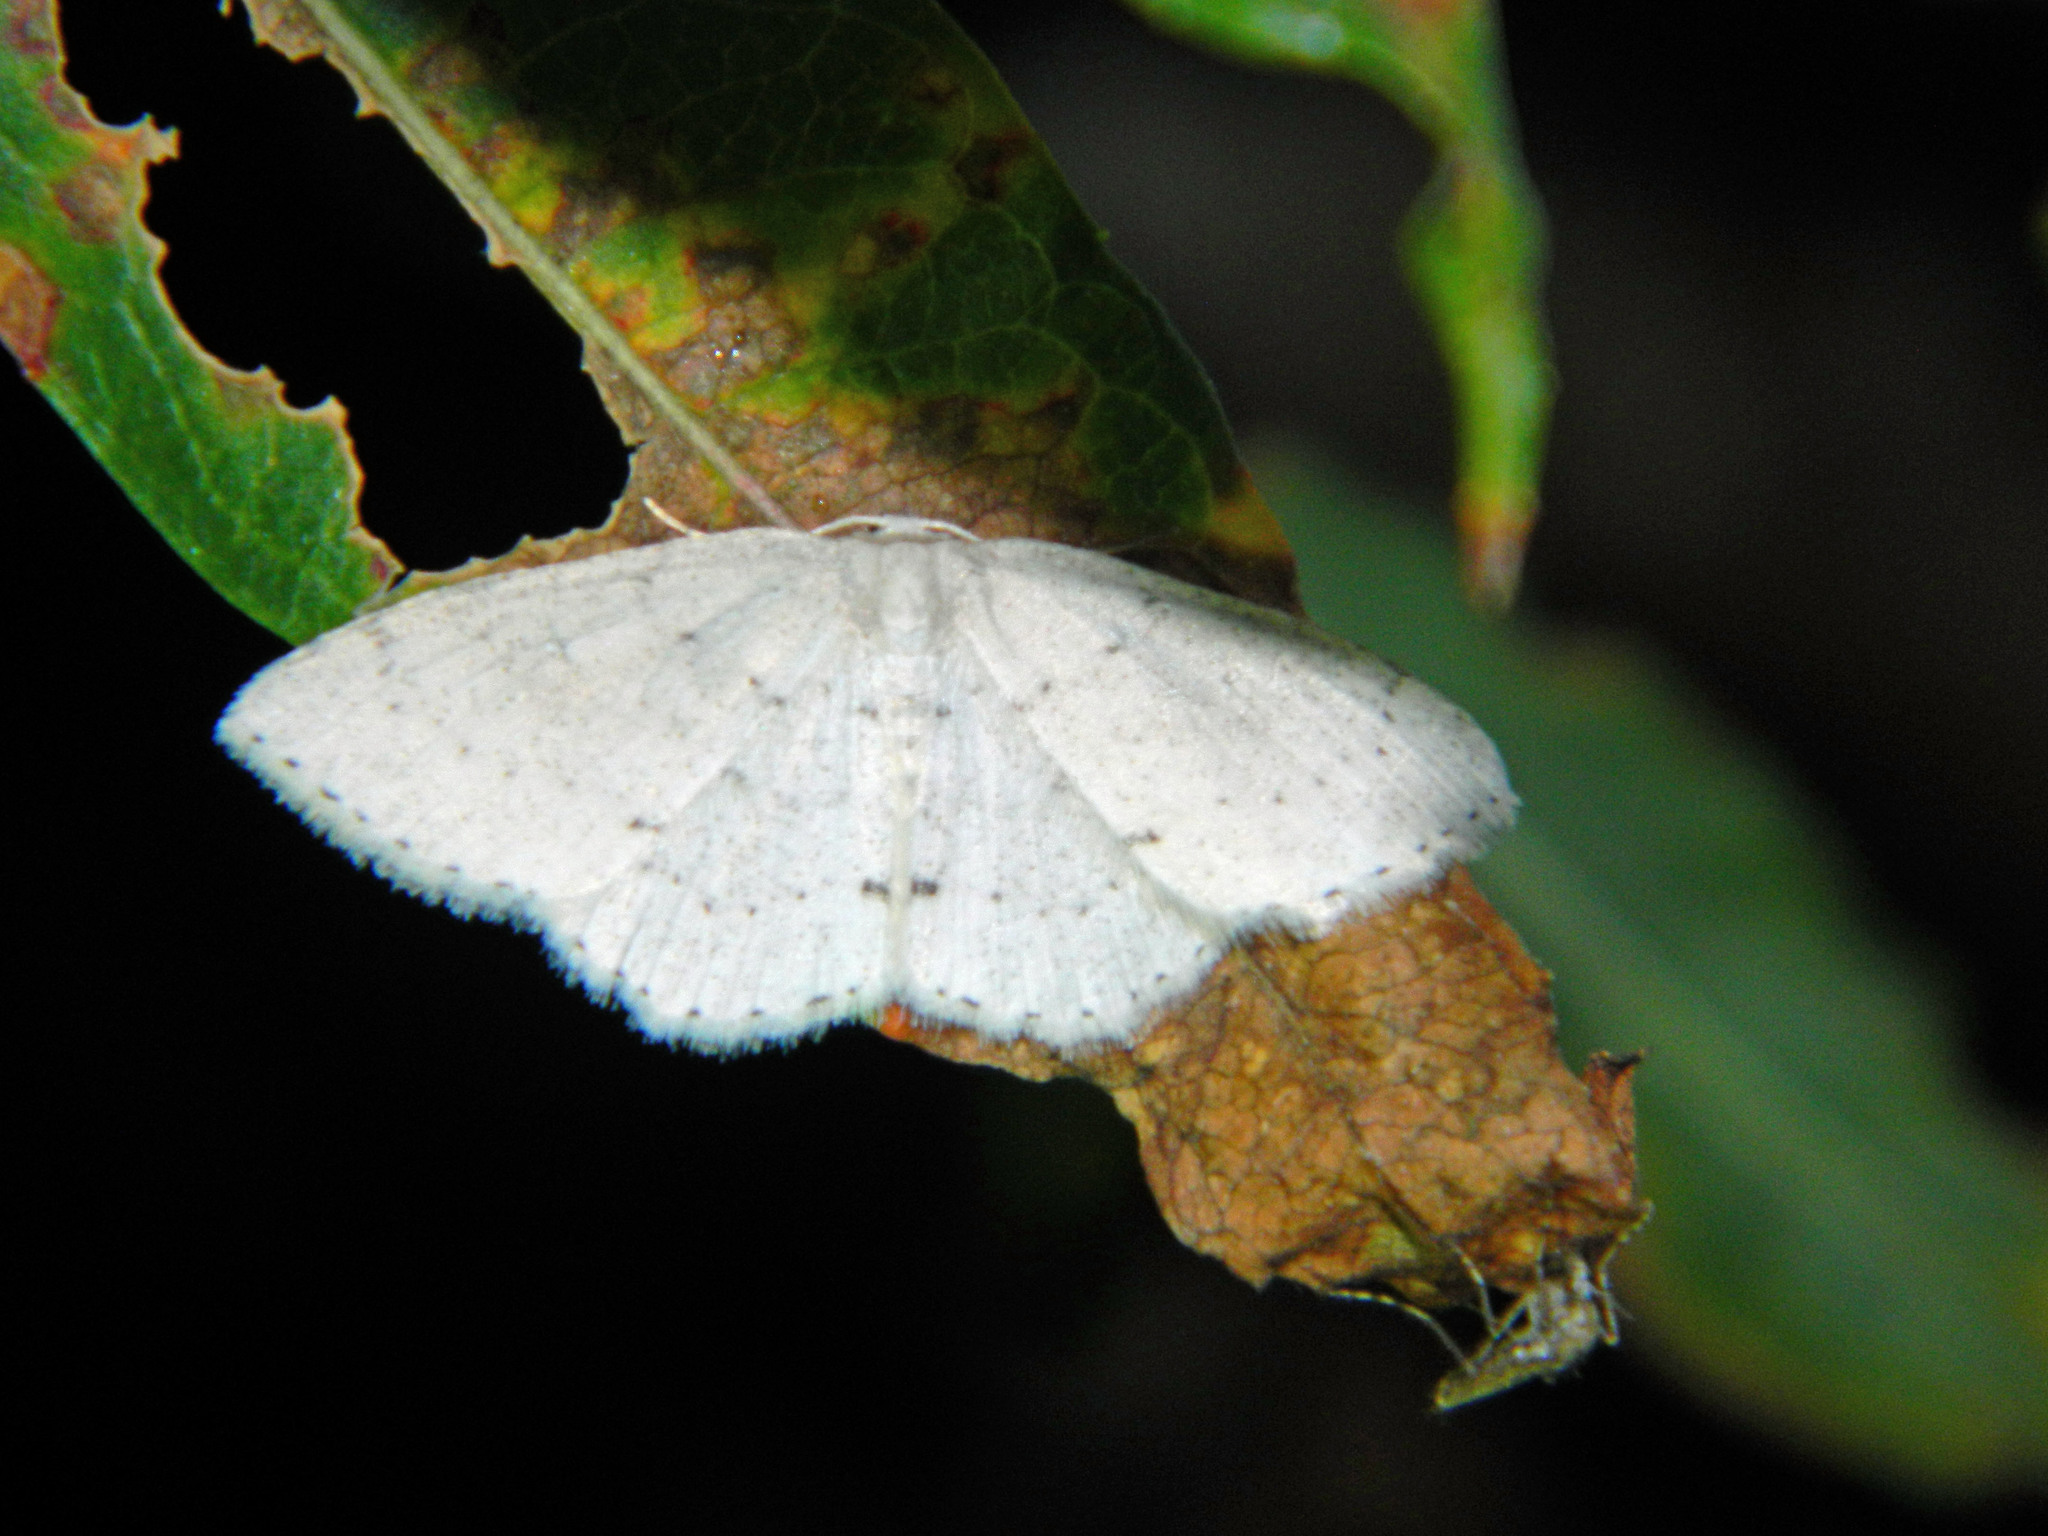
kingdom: Animalia
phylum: Arthropoda
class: Insecta
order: Lepidoptera
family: Geometridae
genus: Cyclophora
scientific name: Cyclophora pendulinaria
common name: Sweet fern geometer
